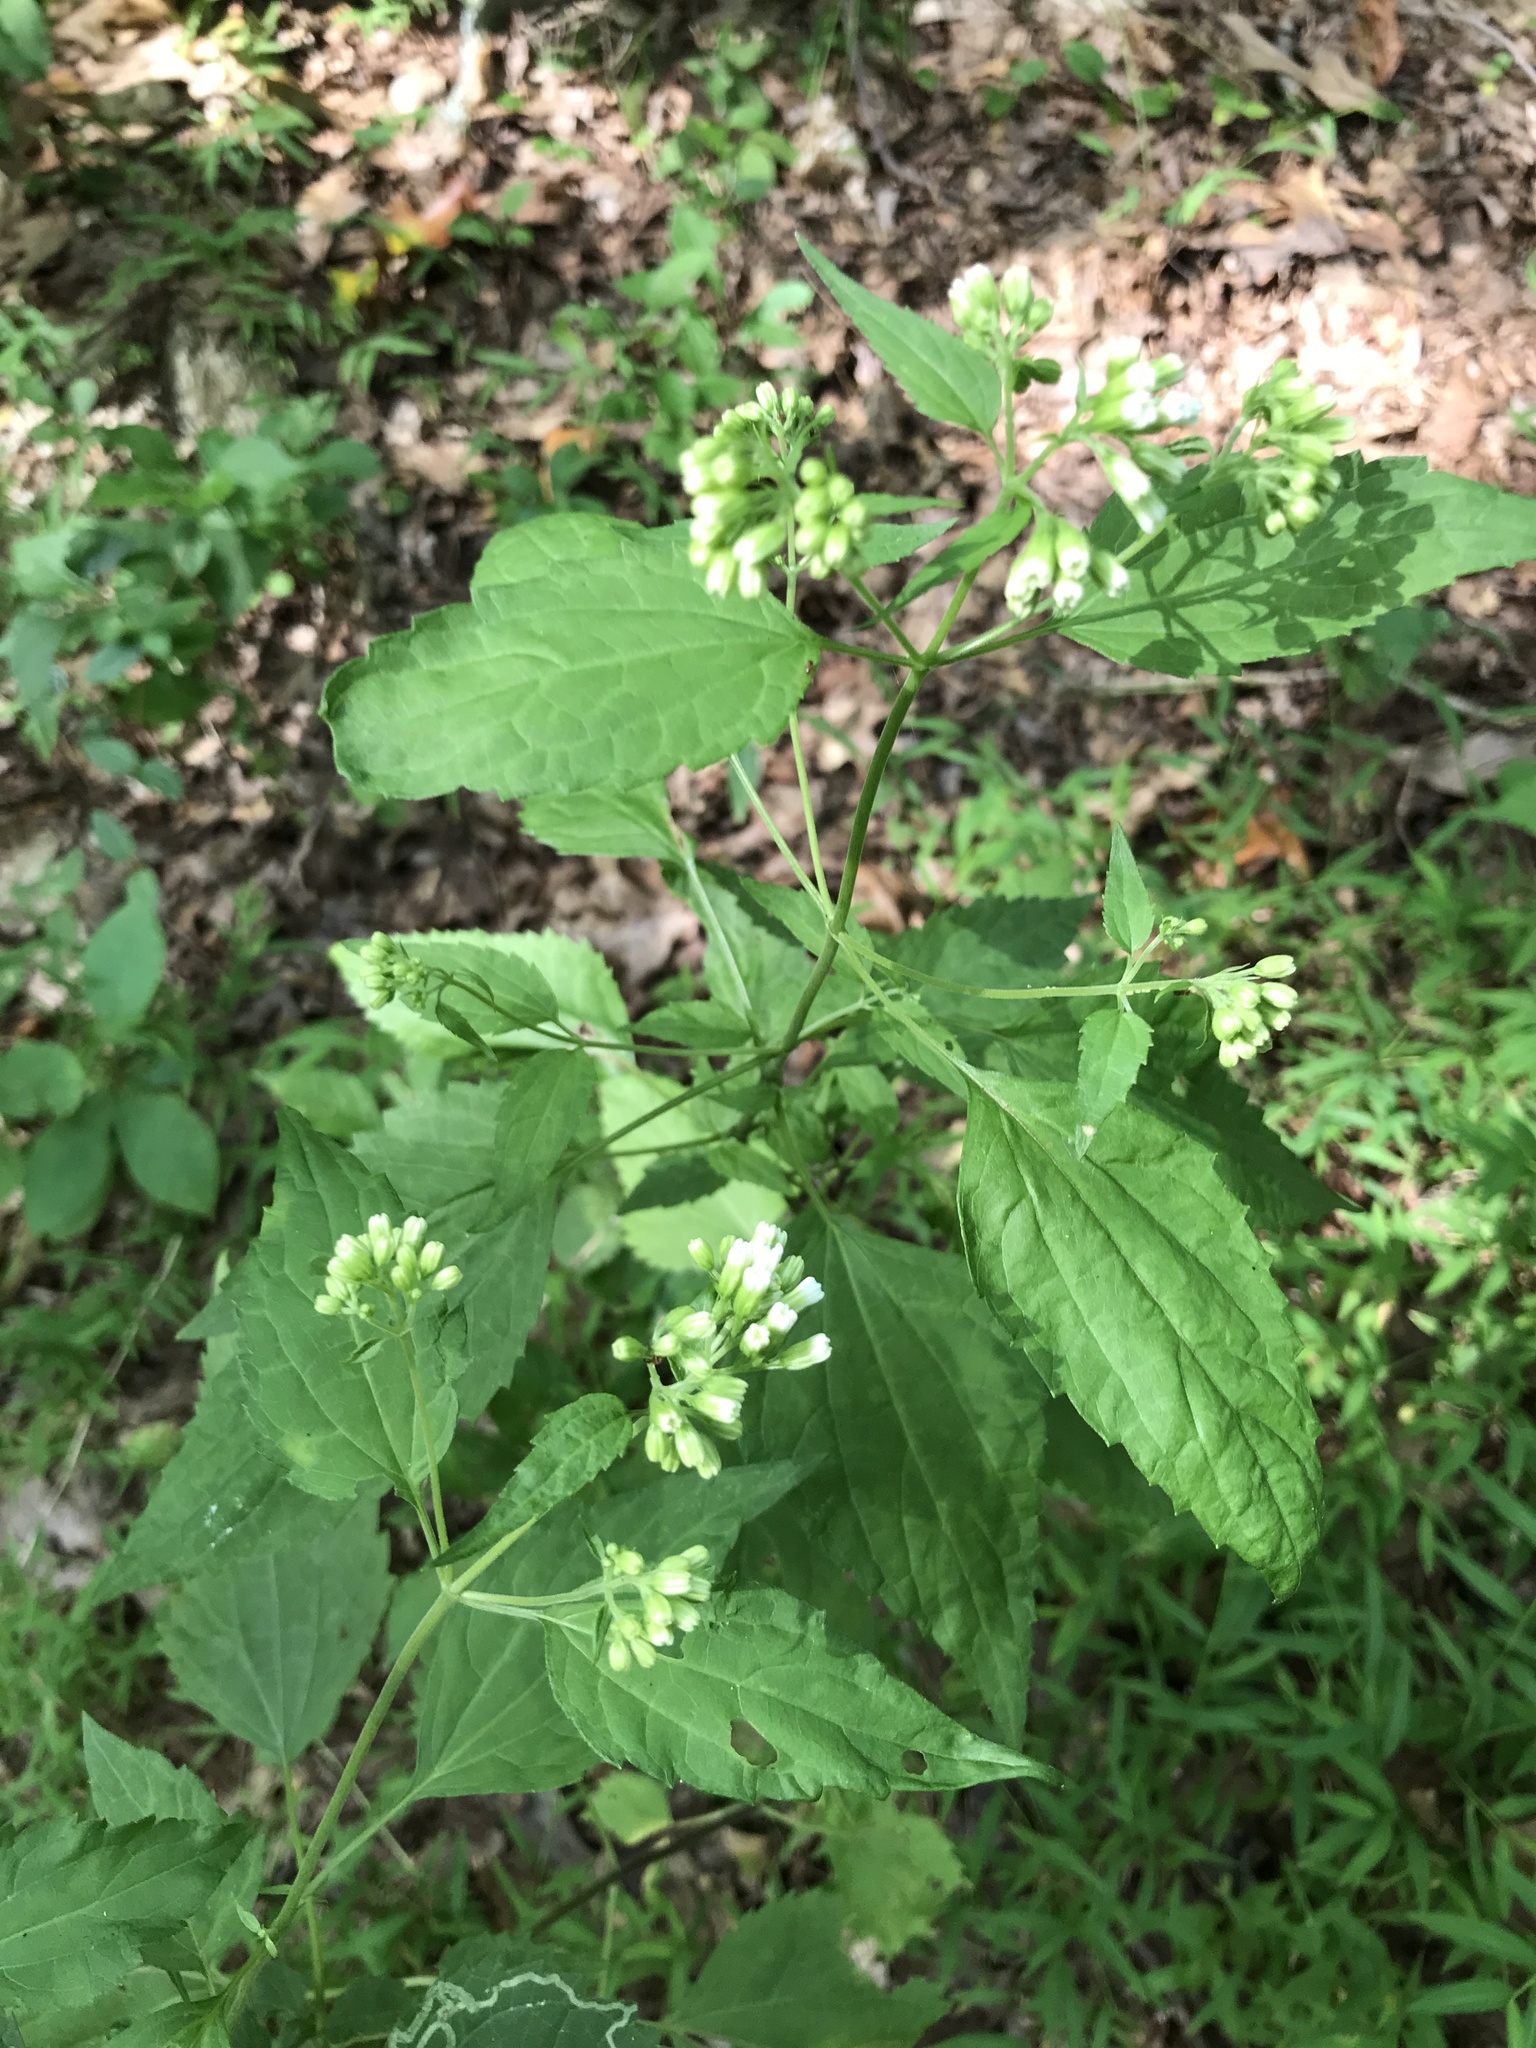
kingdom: Plantae
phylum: Tracheophyta
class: Magnoliopsida
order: Asterales
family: Asteraceae
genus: Ageratina
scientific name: Ageratina altissima
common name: White snakeroot
